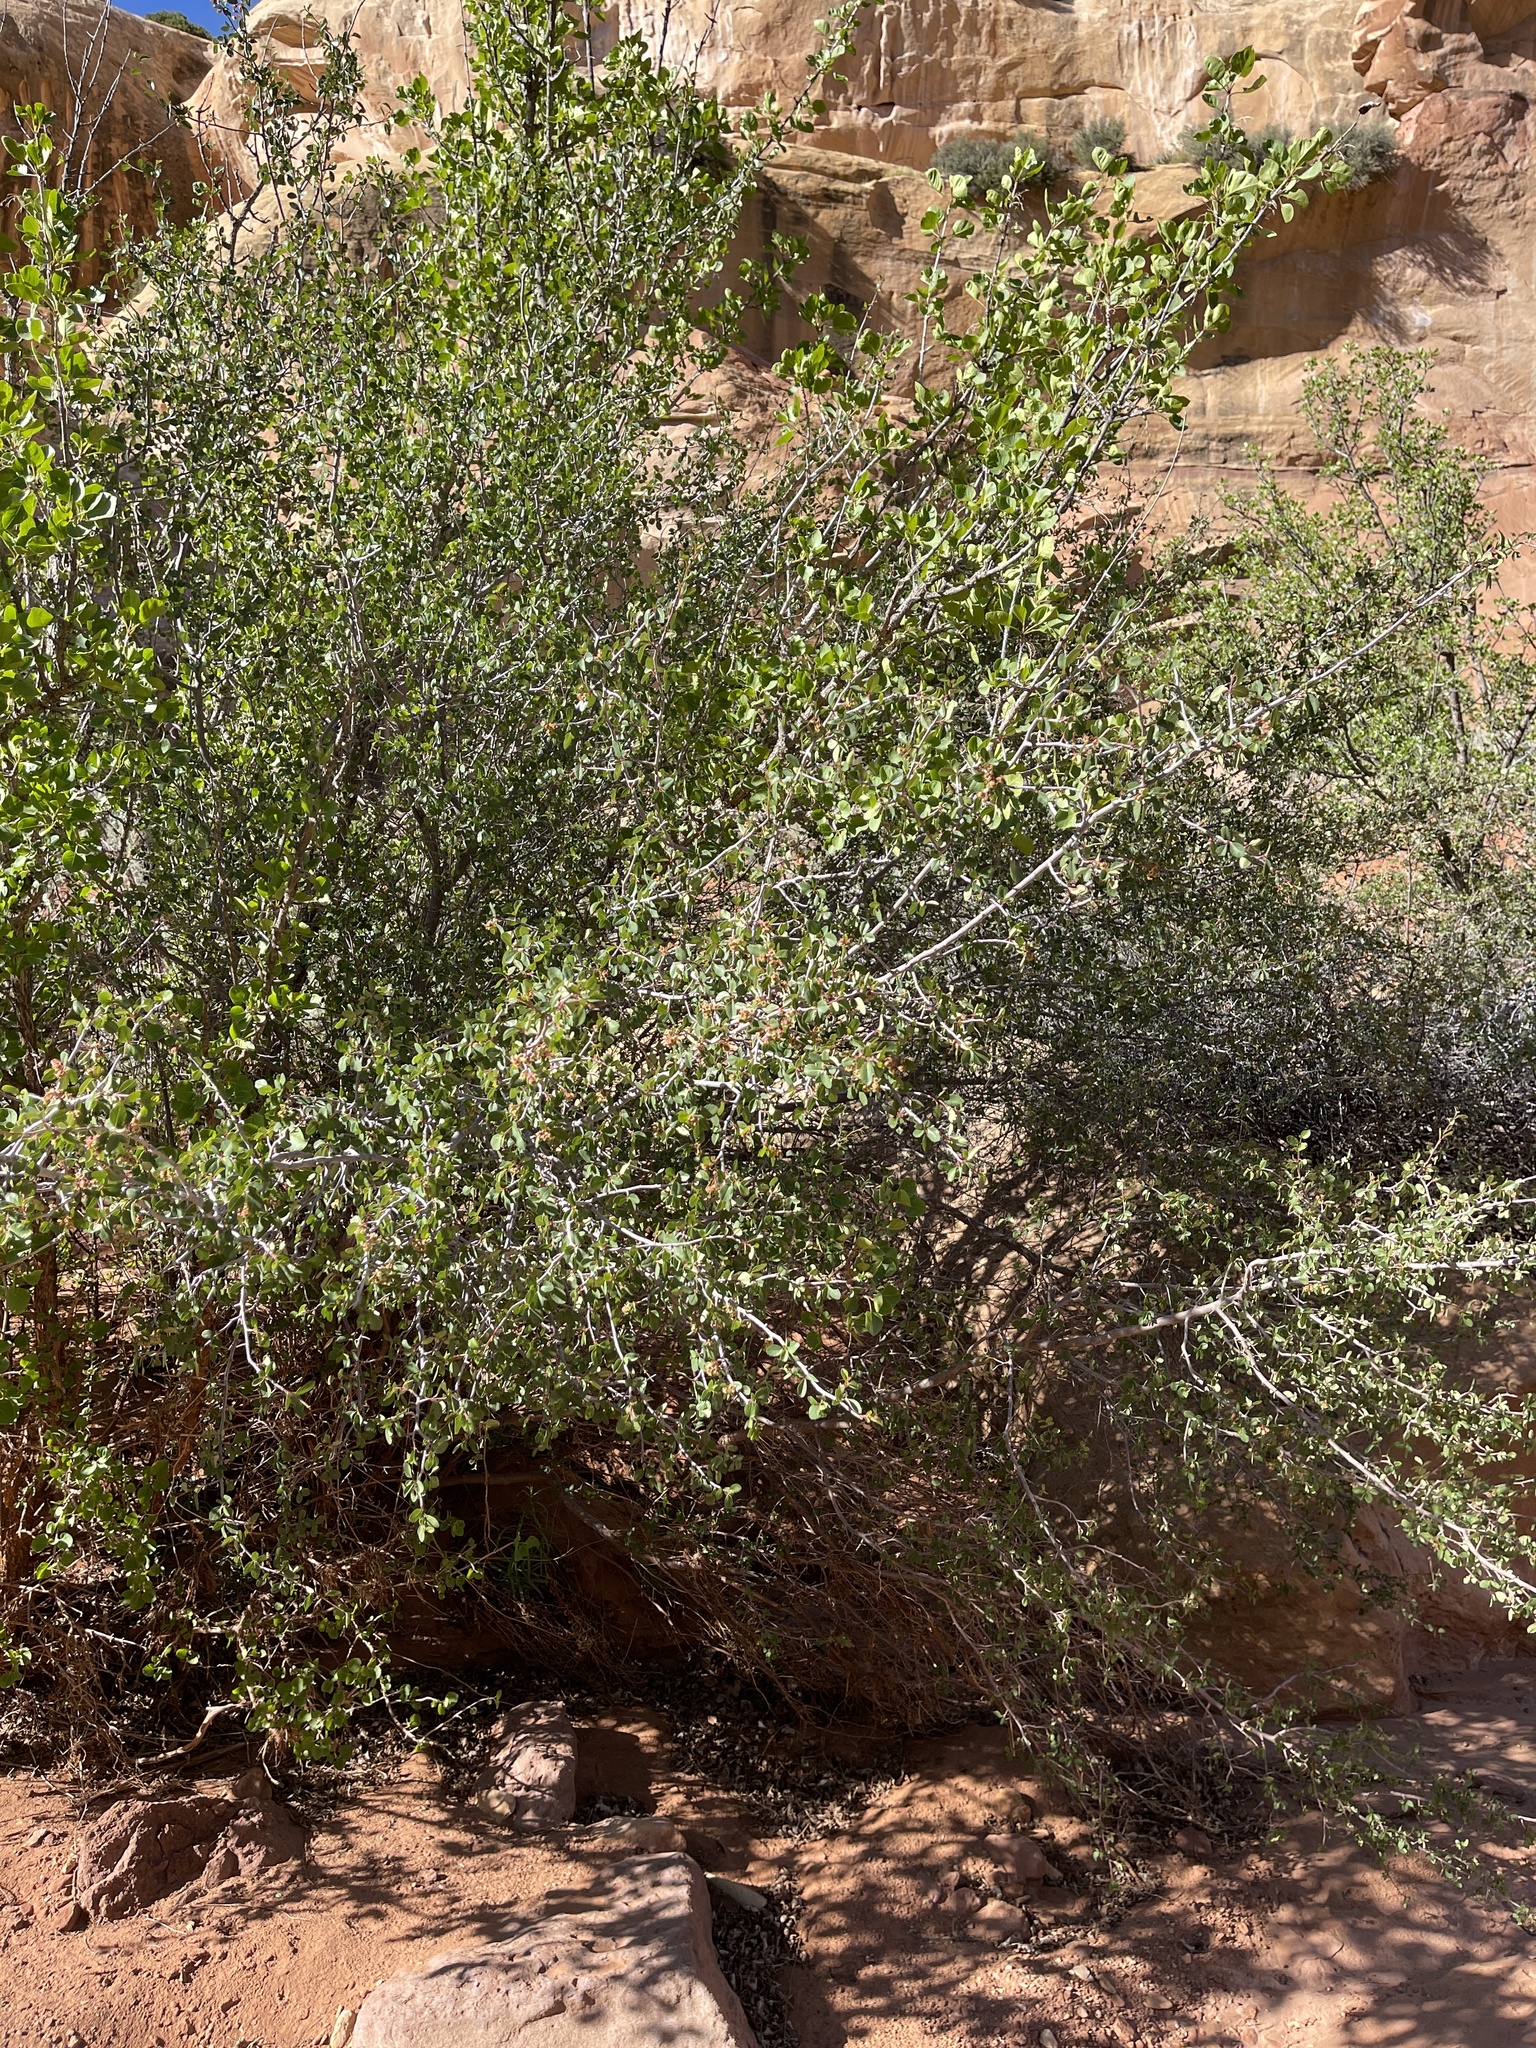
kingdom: Plantae
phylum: Tracheophyta
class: Magnoliopsida
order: Rosales
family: Rosaceae
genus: Amelanchier
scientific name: Amelanchier utahensis
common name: Utah serviceberry
